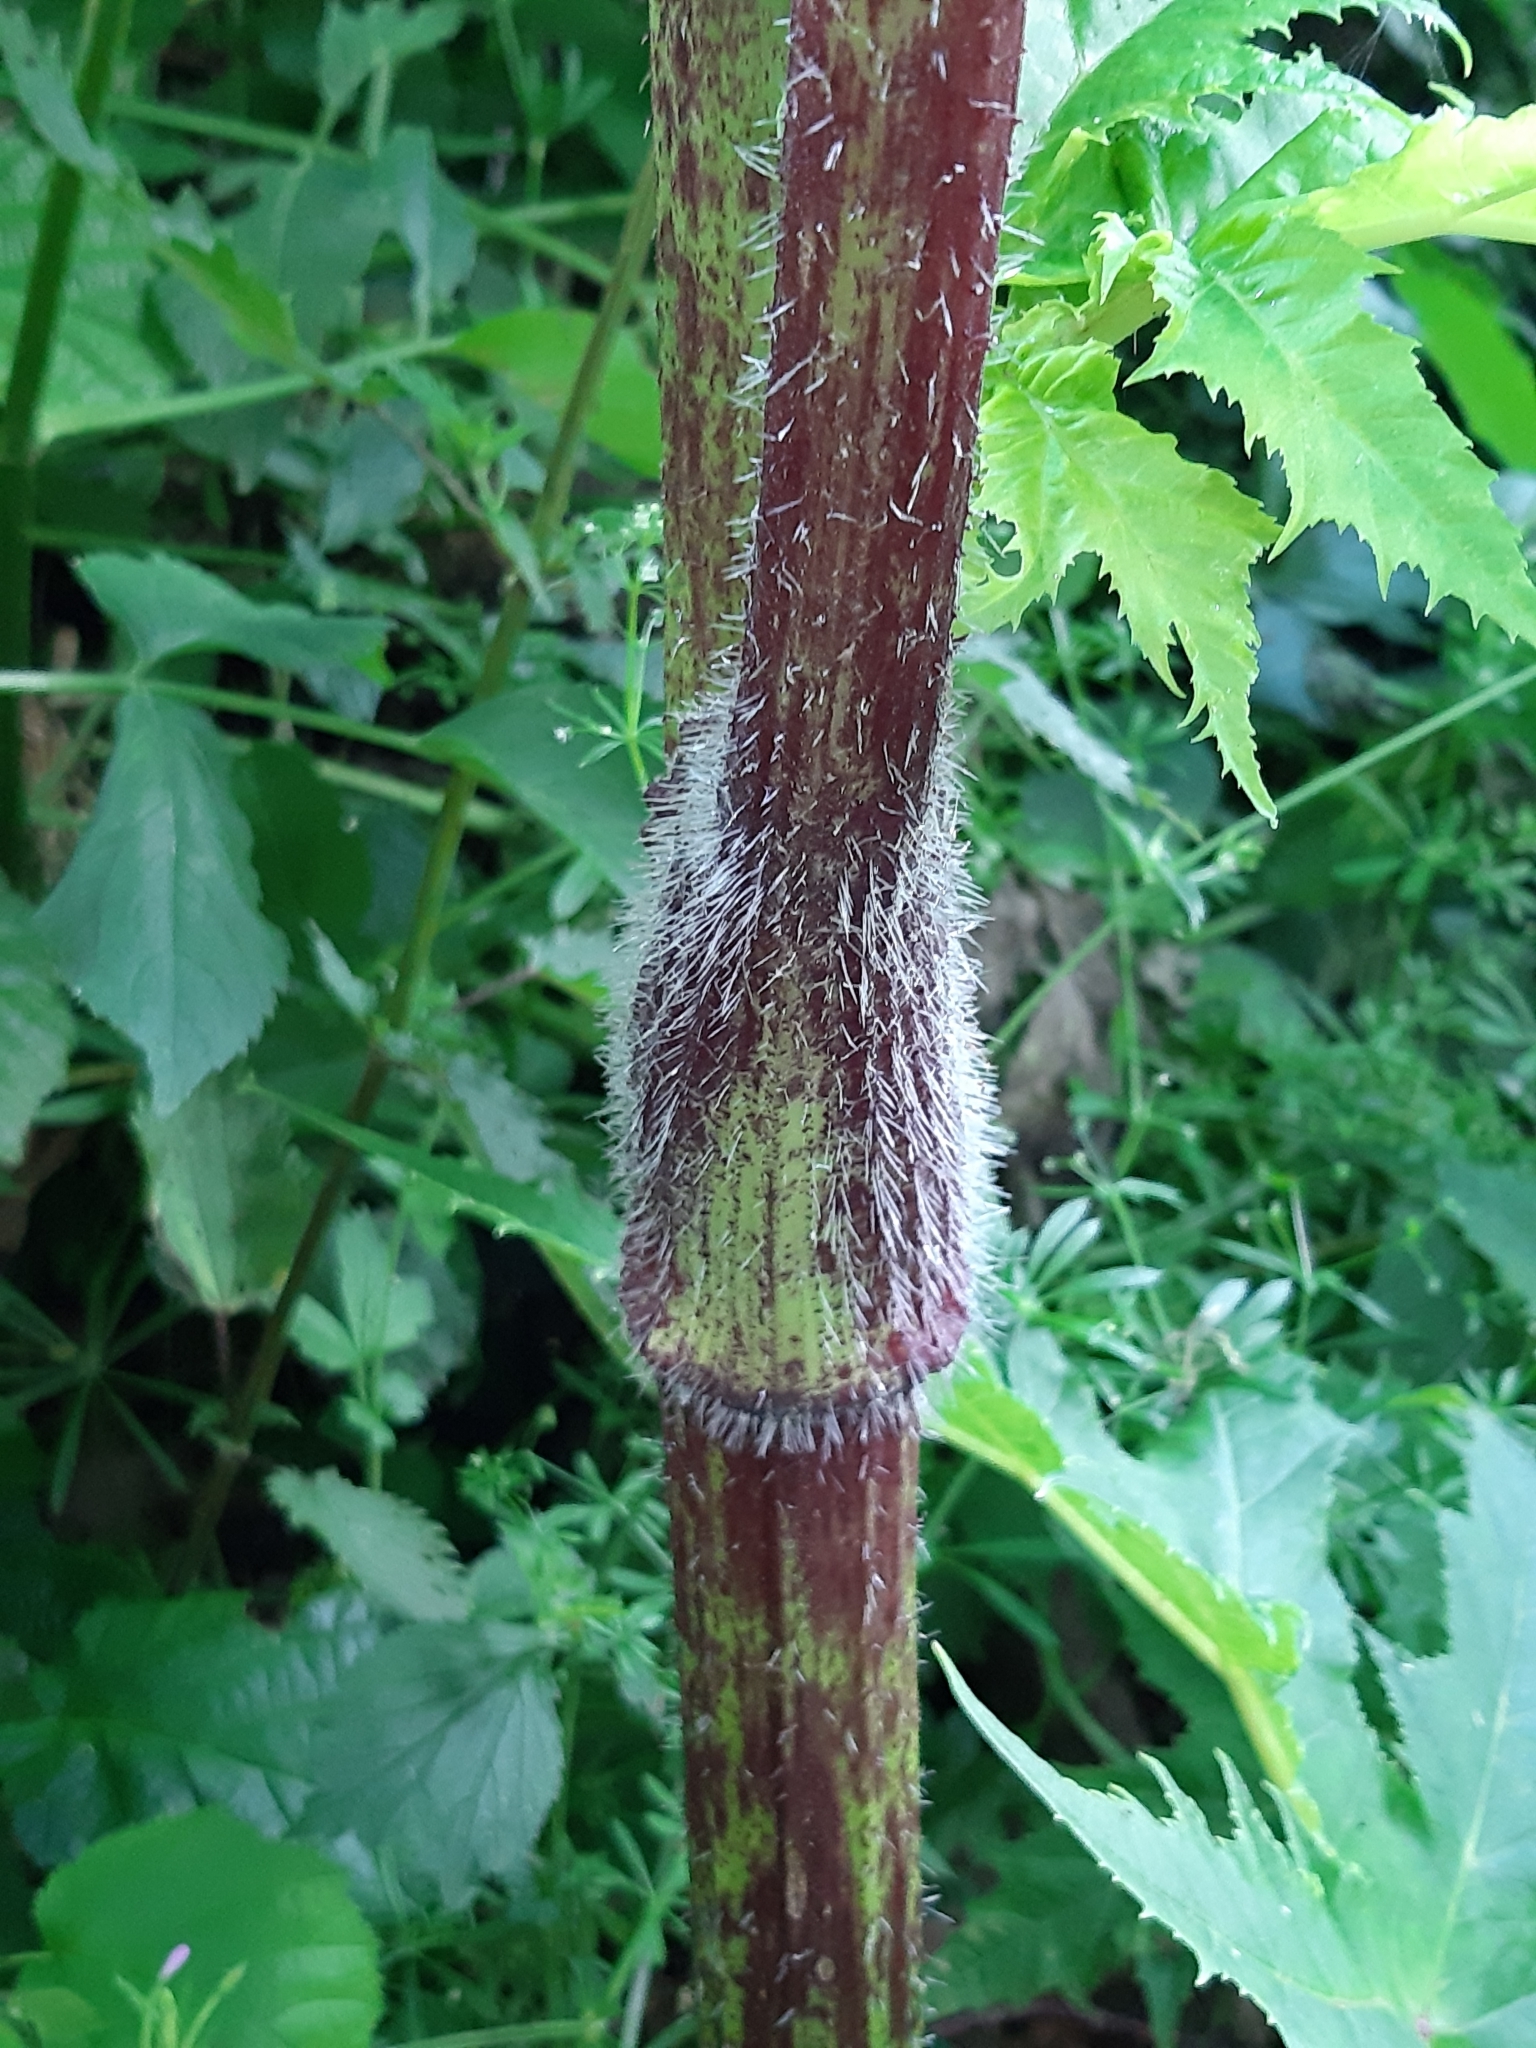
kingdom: Plantae
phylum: Tracheophyta
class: Magnoliopsida
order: Apiales
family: Apiaceae
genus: Heracleum
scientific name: Heracleum mantegazzianum
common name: Giant hogweed
